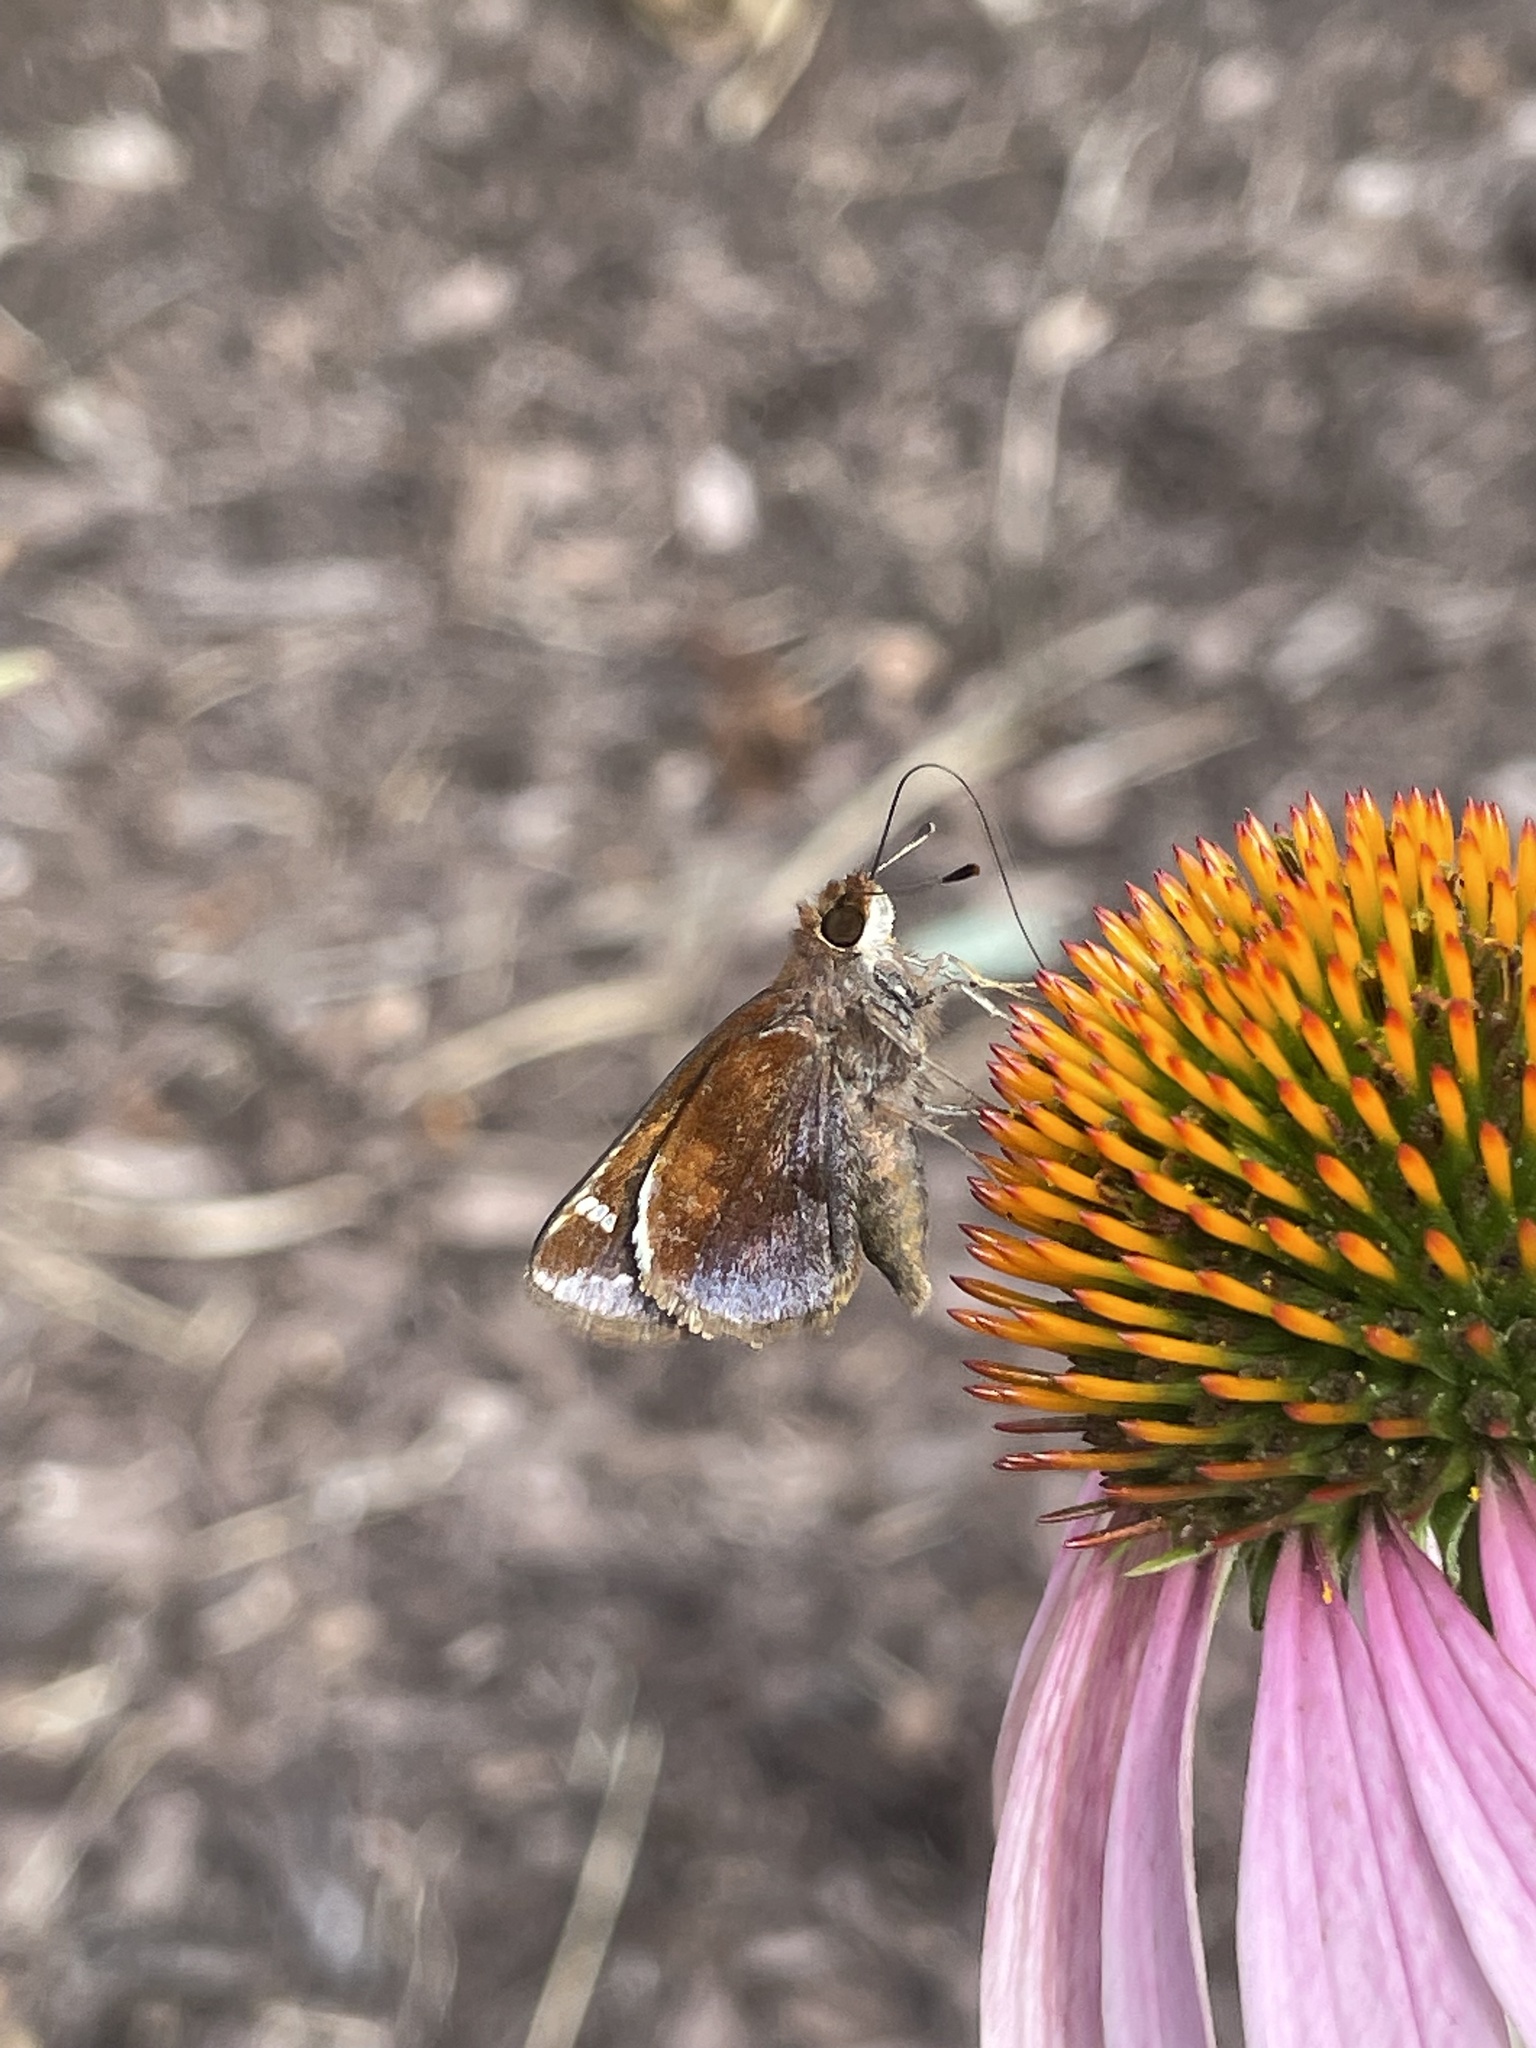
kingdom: Animalia
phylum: Arthropoda
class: Insecta
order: Lepidoptera
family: Hesperiidae
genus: Lon
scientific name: Lon zabulon
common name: Zabulon skipper
